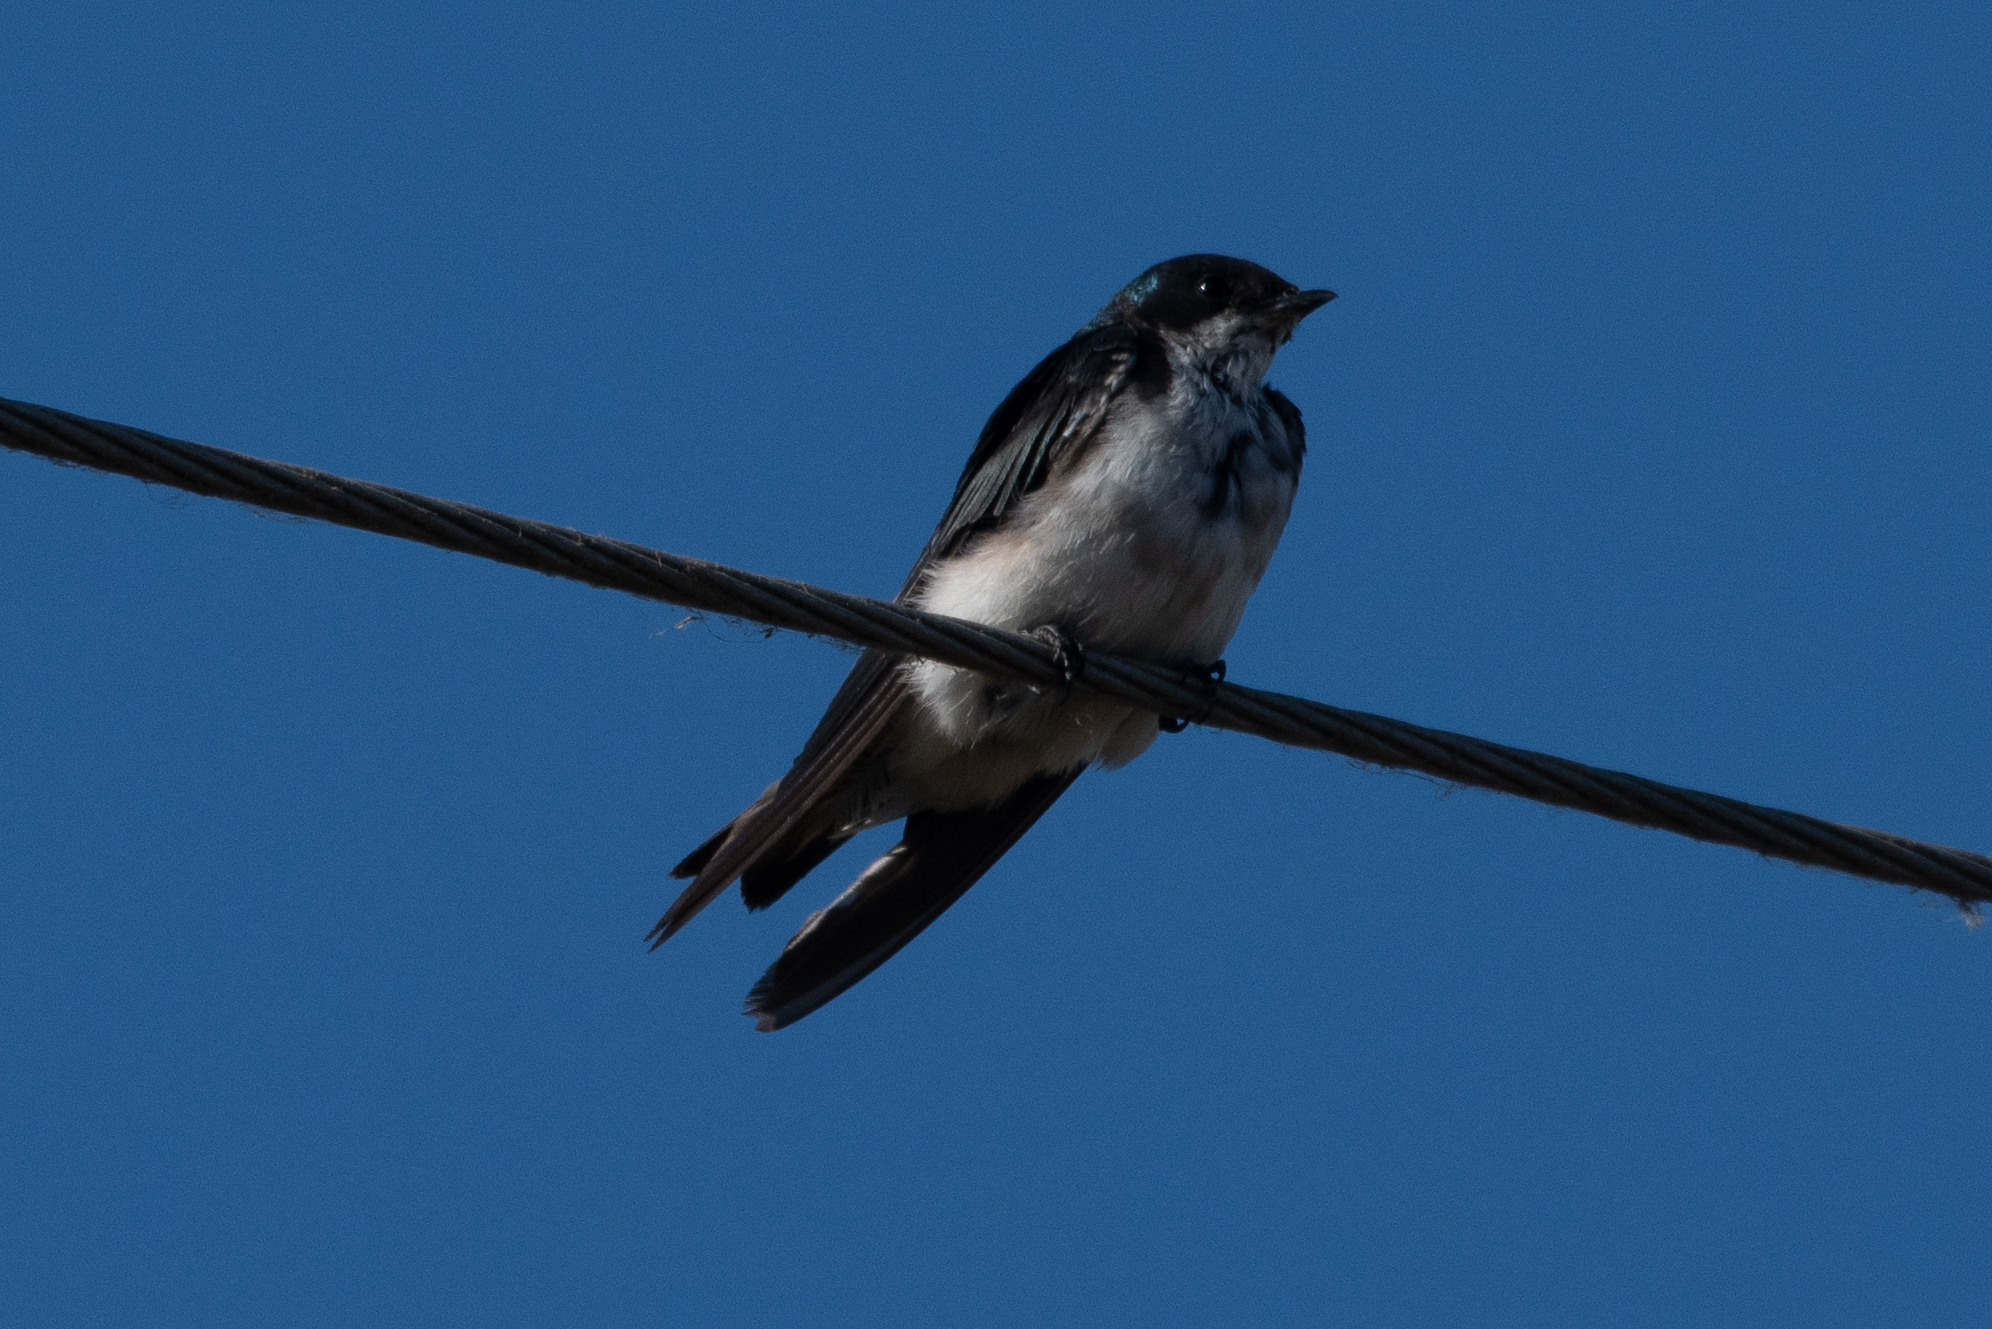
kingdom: Animalia
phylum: Chordata
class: Aves
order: Passeriformes
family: Hirundinidae
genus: Tachycineta
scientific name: Tachycineta bicolor
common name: Tree swallow
